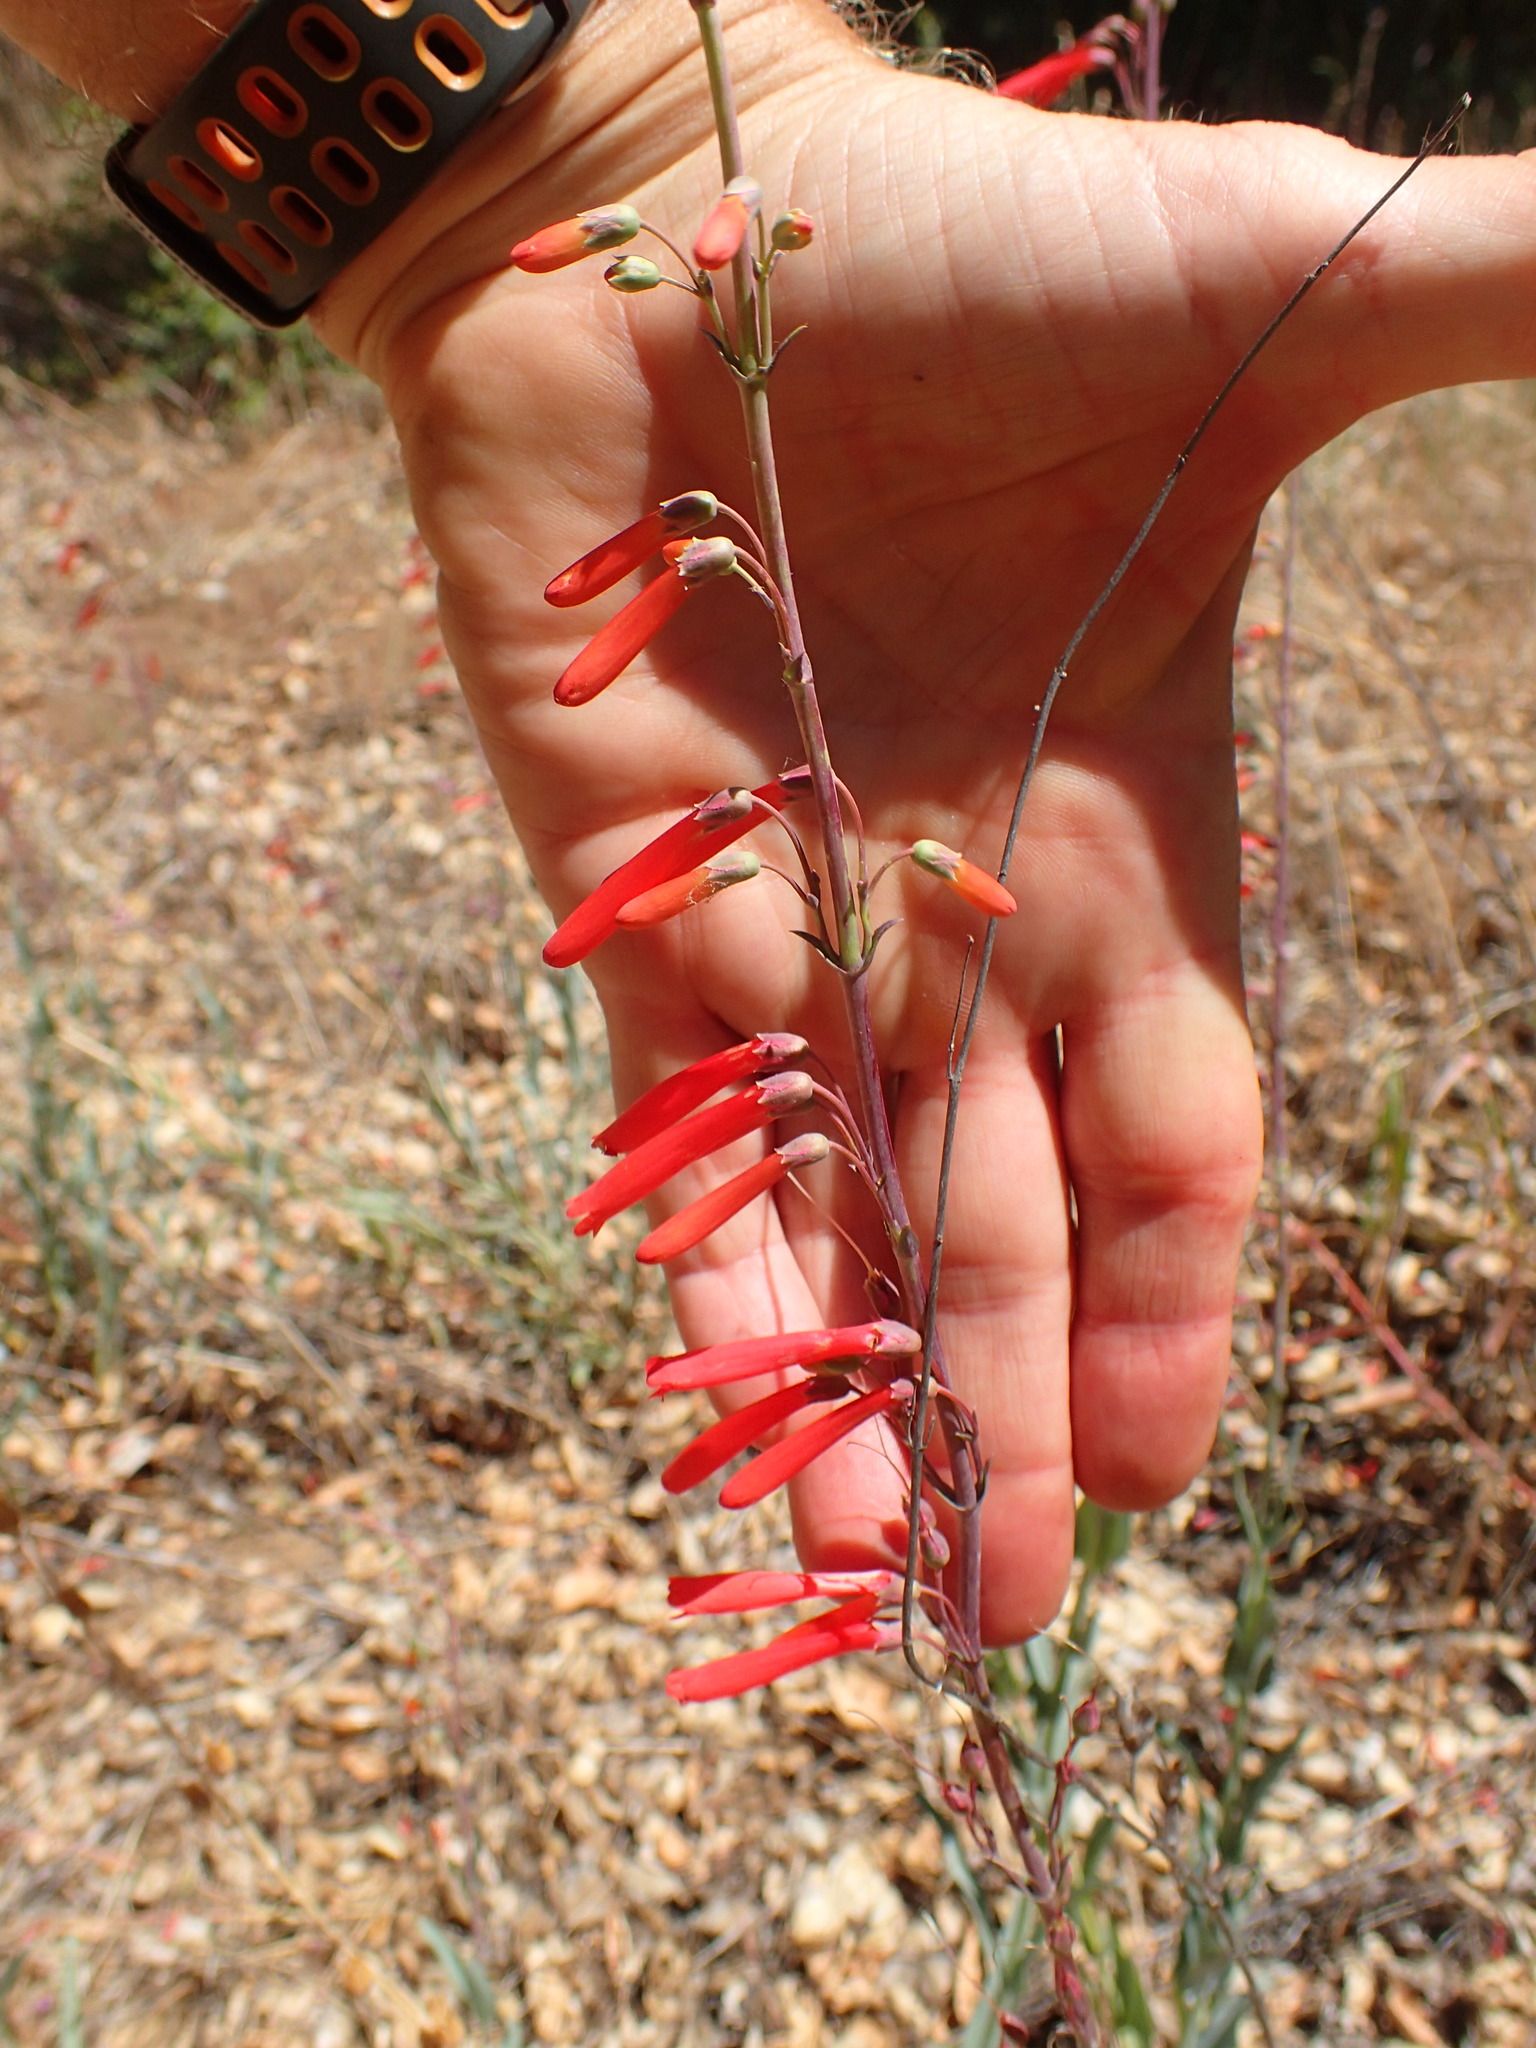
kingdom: Plantae
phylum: Tracheophyta
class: Magnoliopsida
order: Lamiales
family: Plantaginaceae
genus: Penstemon
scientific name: Penstemon centranthifolius
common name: Scarlet bugler
